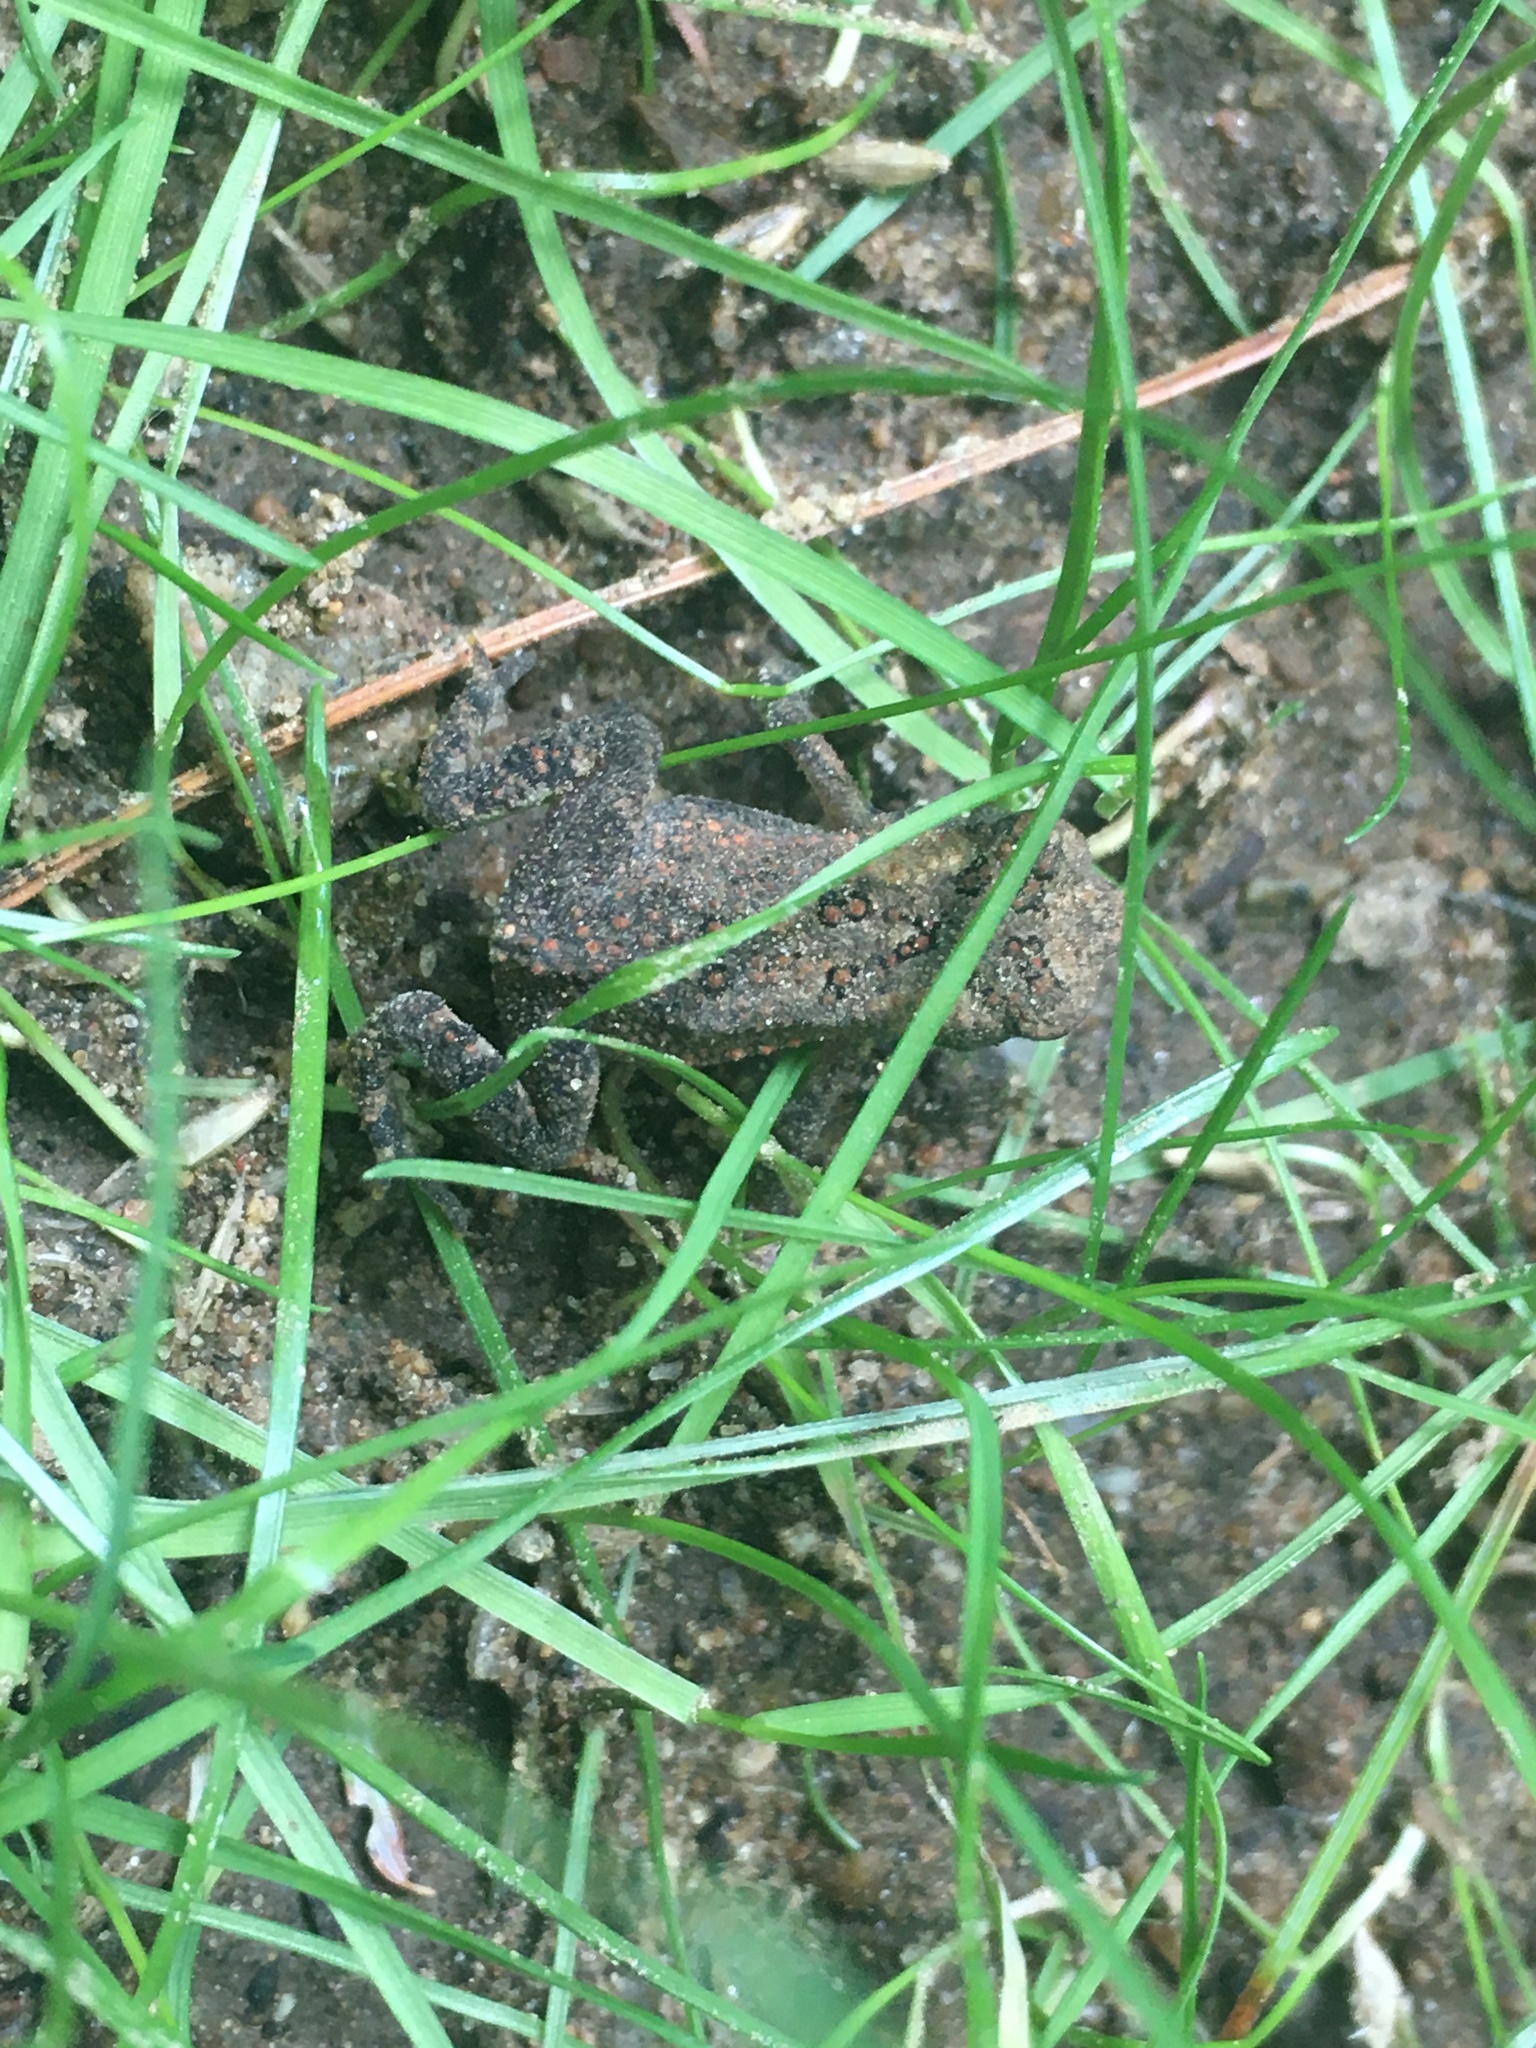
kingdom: Animalia
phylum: Chordata
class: Amphibia
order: Anura
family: Bufonidae
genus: Anaxyrus
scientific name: Anaxyrus americanus
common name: American toad
